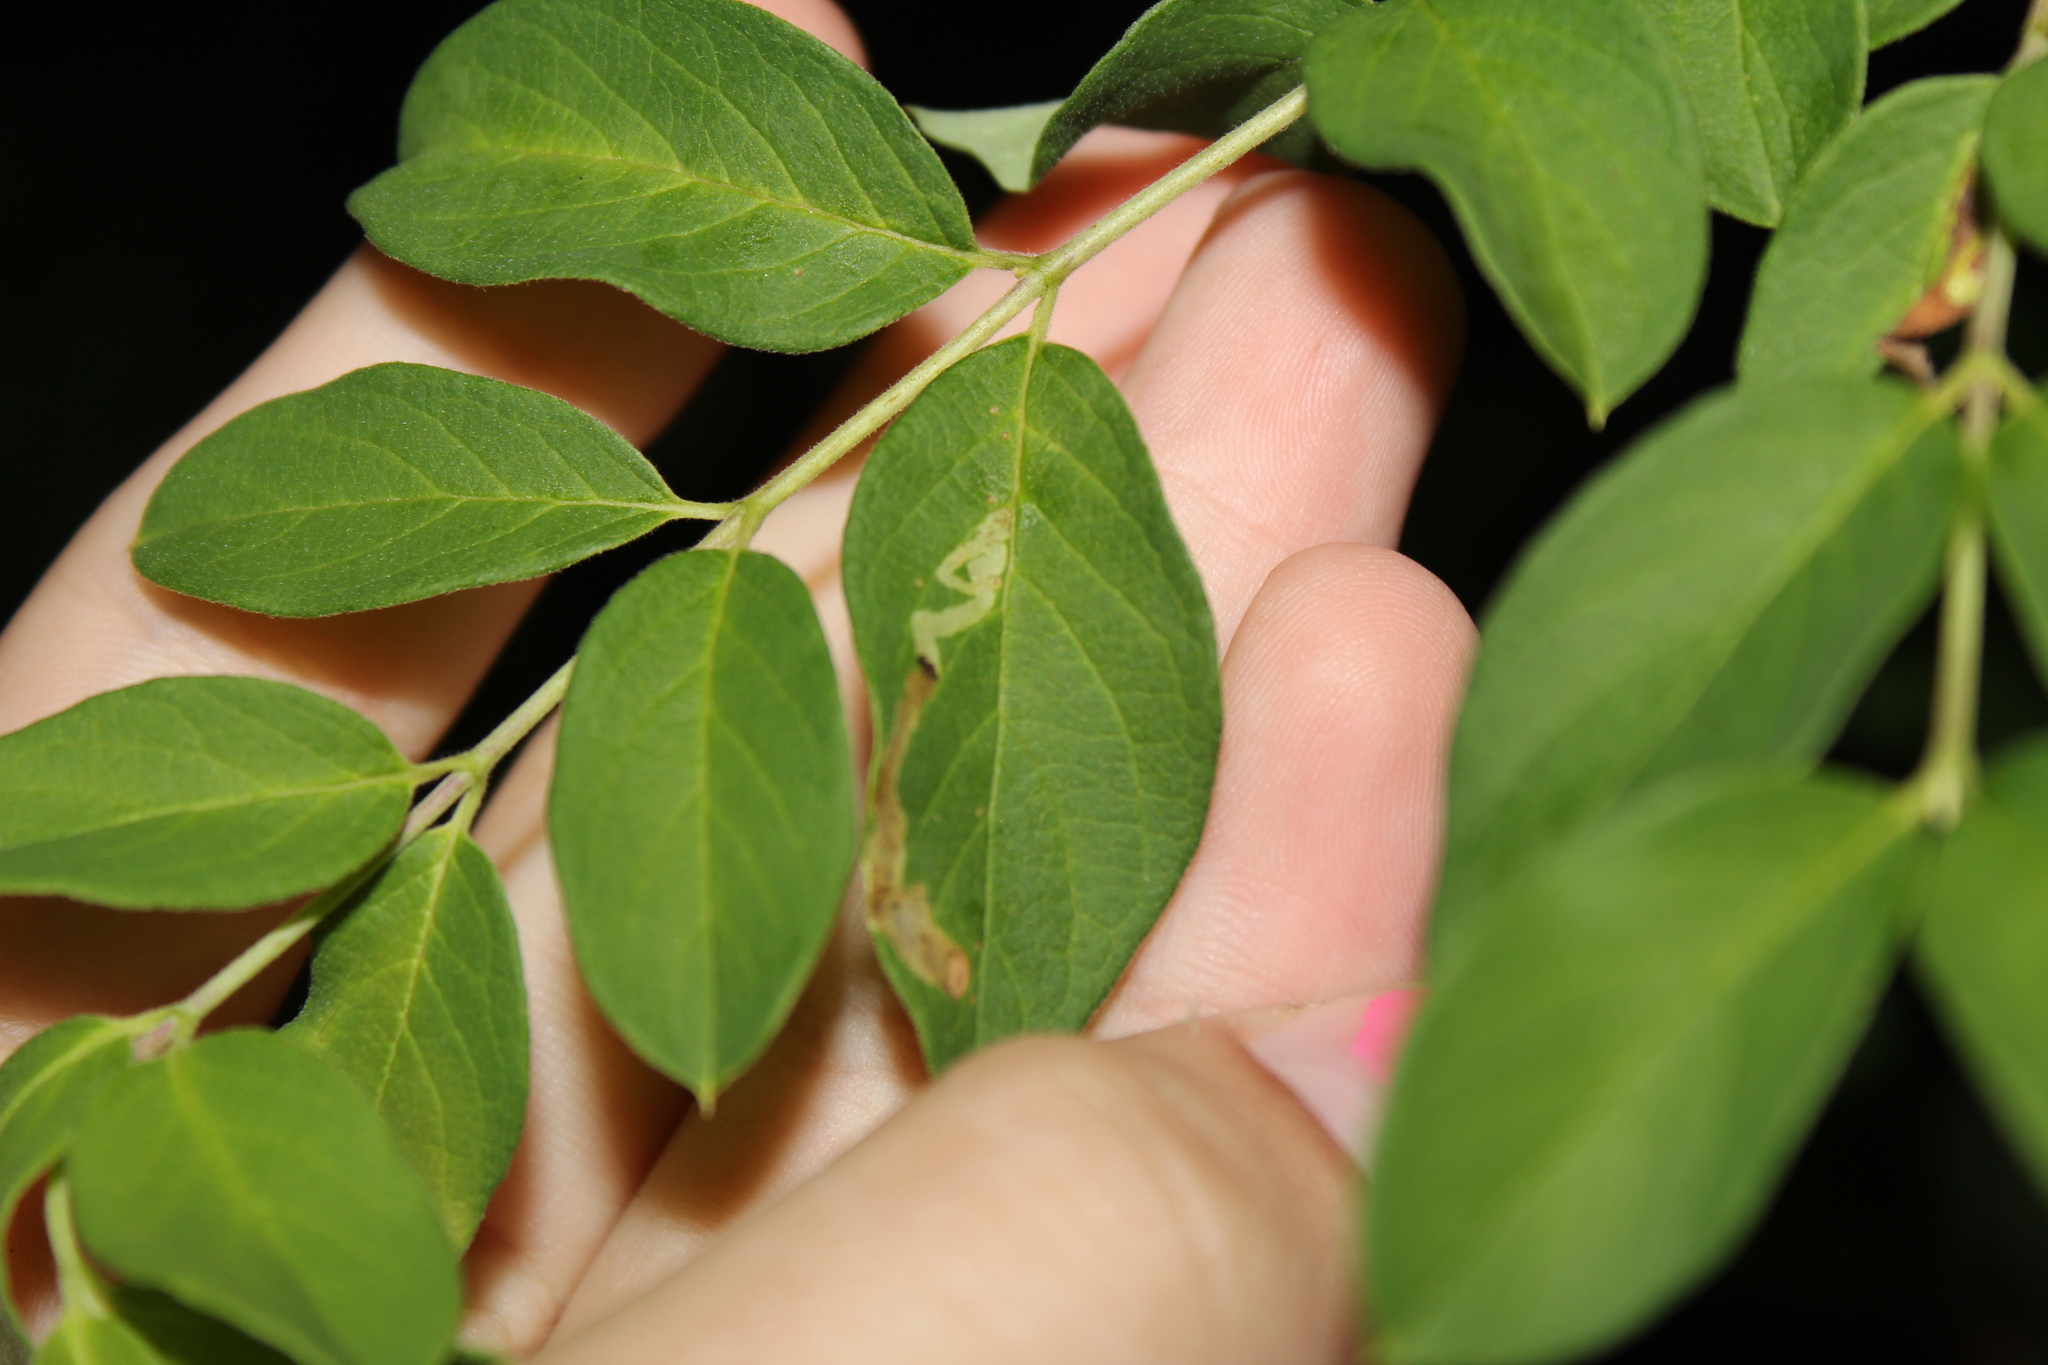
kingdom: Animalia
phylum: Arthropoda
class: Insecta
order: Diptera
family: Agromyzidae
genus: Aulagromyza
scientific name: Aulagromyza luteoscutellata
